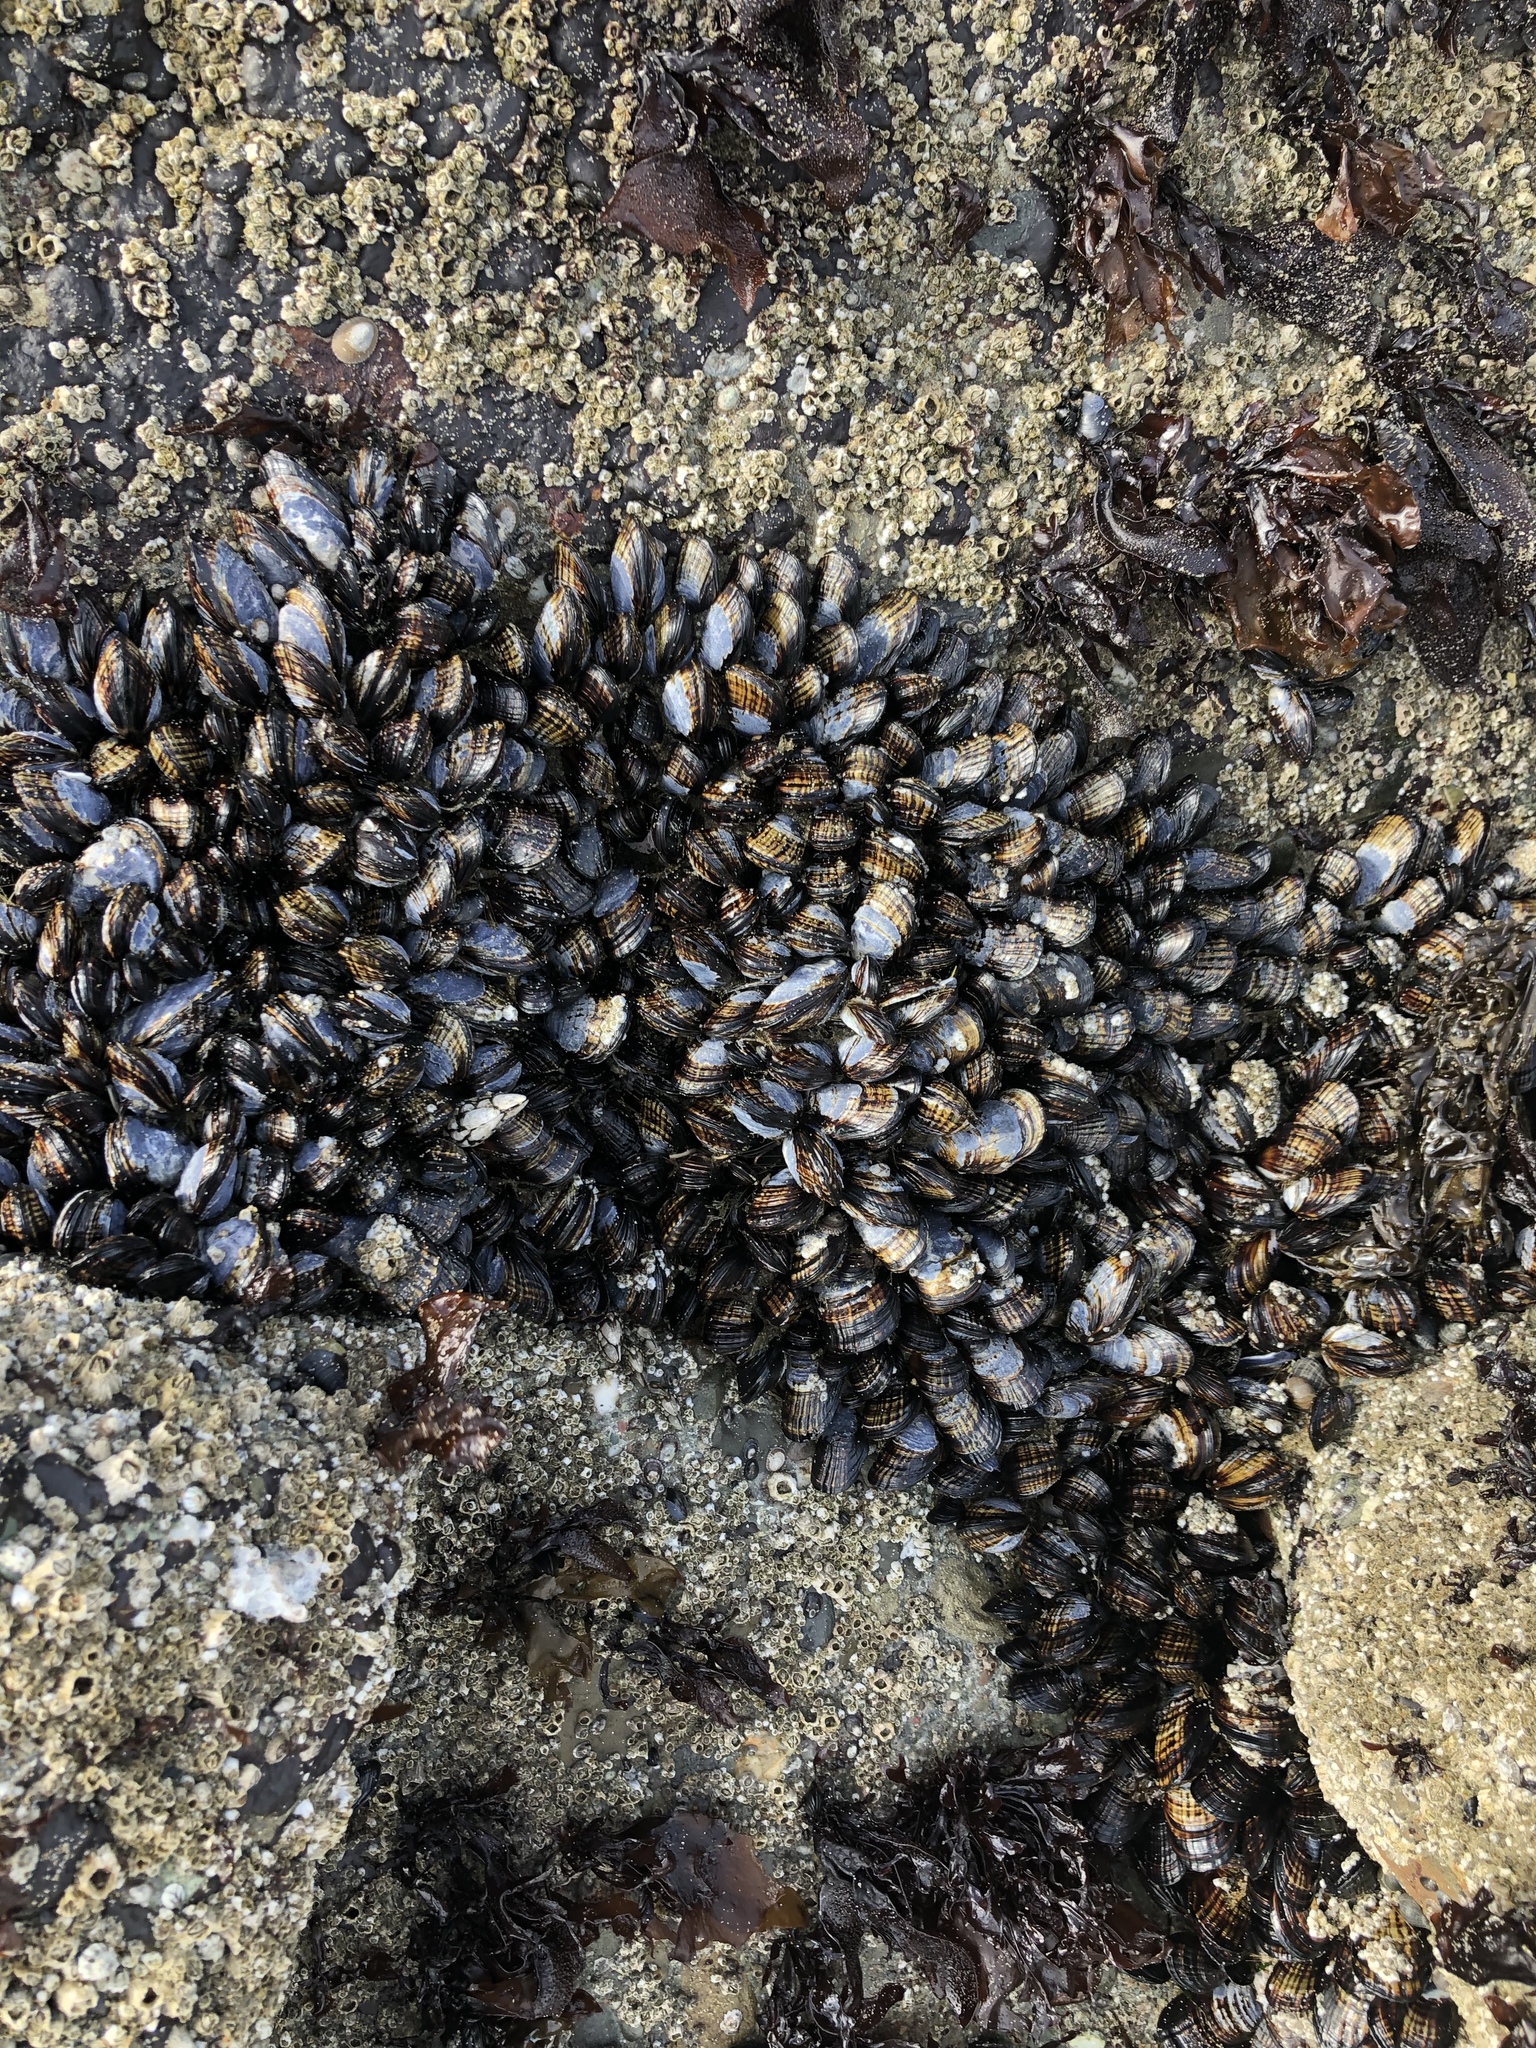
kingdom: Animalia
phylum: Mollusca
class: Bivalvia
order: Mytilida
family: Mytilidae
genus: Mytilus
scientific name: Mytilus californianus
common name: California mussel
